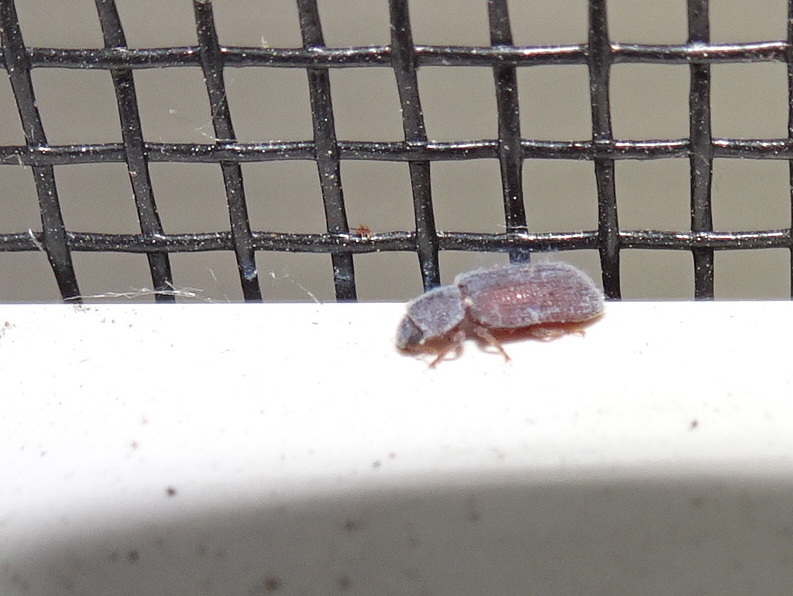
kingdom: Animalia
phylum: Arthropoda
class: Insecta
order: Coleoptera
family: Zopheridae
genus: Endeitoma
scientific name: Endeitoma granulata
